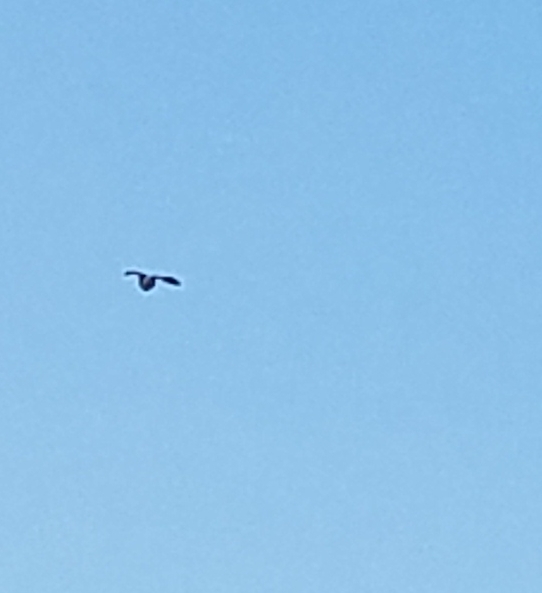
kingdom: Animalia
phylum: Chordata
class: Aves
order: Pelecaniformes
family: Ardeidae
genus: Butorides
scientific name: Butorides virescens
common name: Green heron
